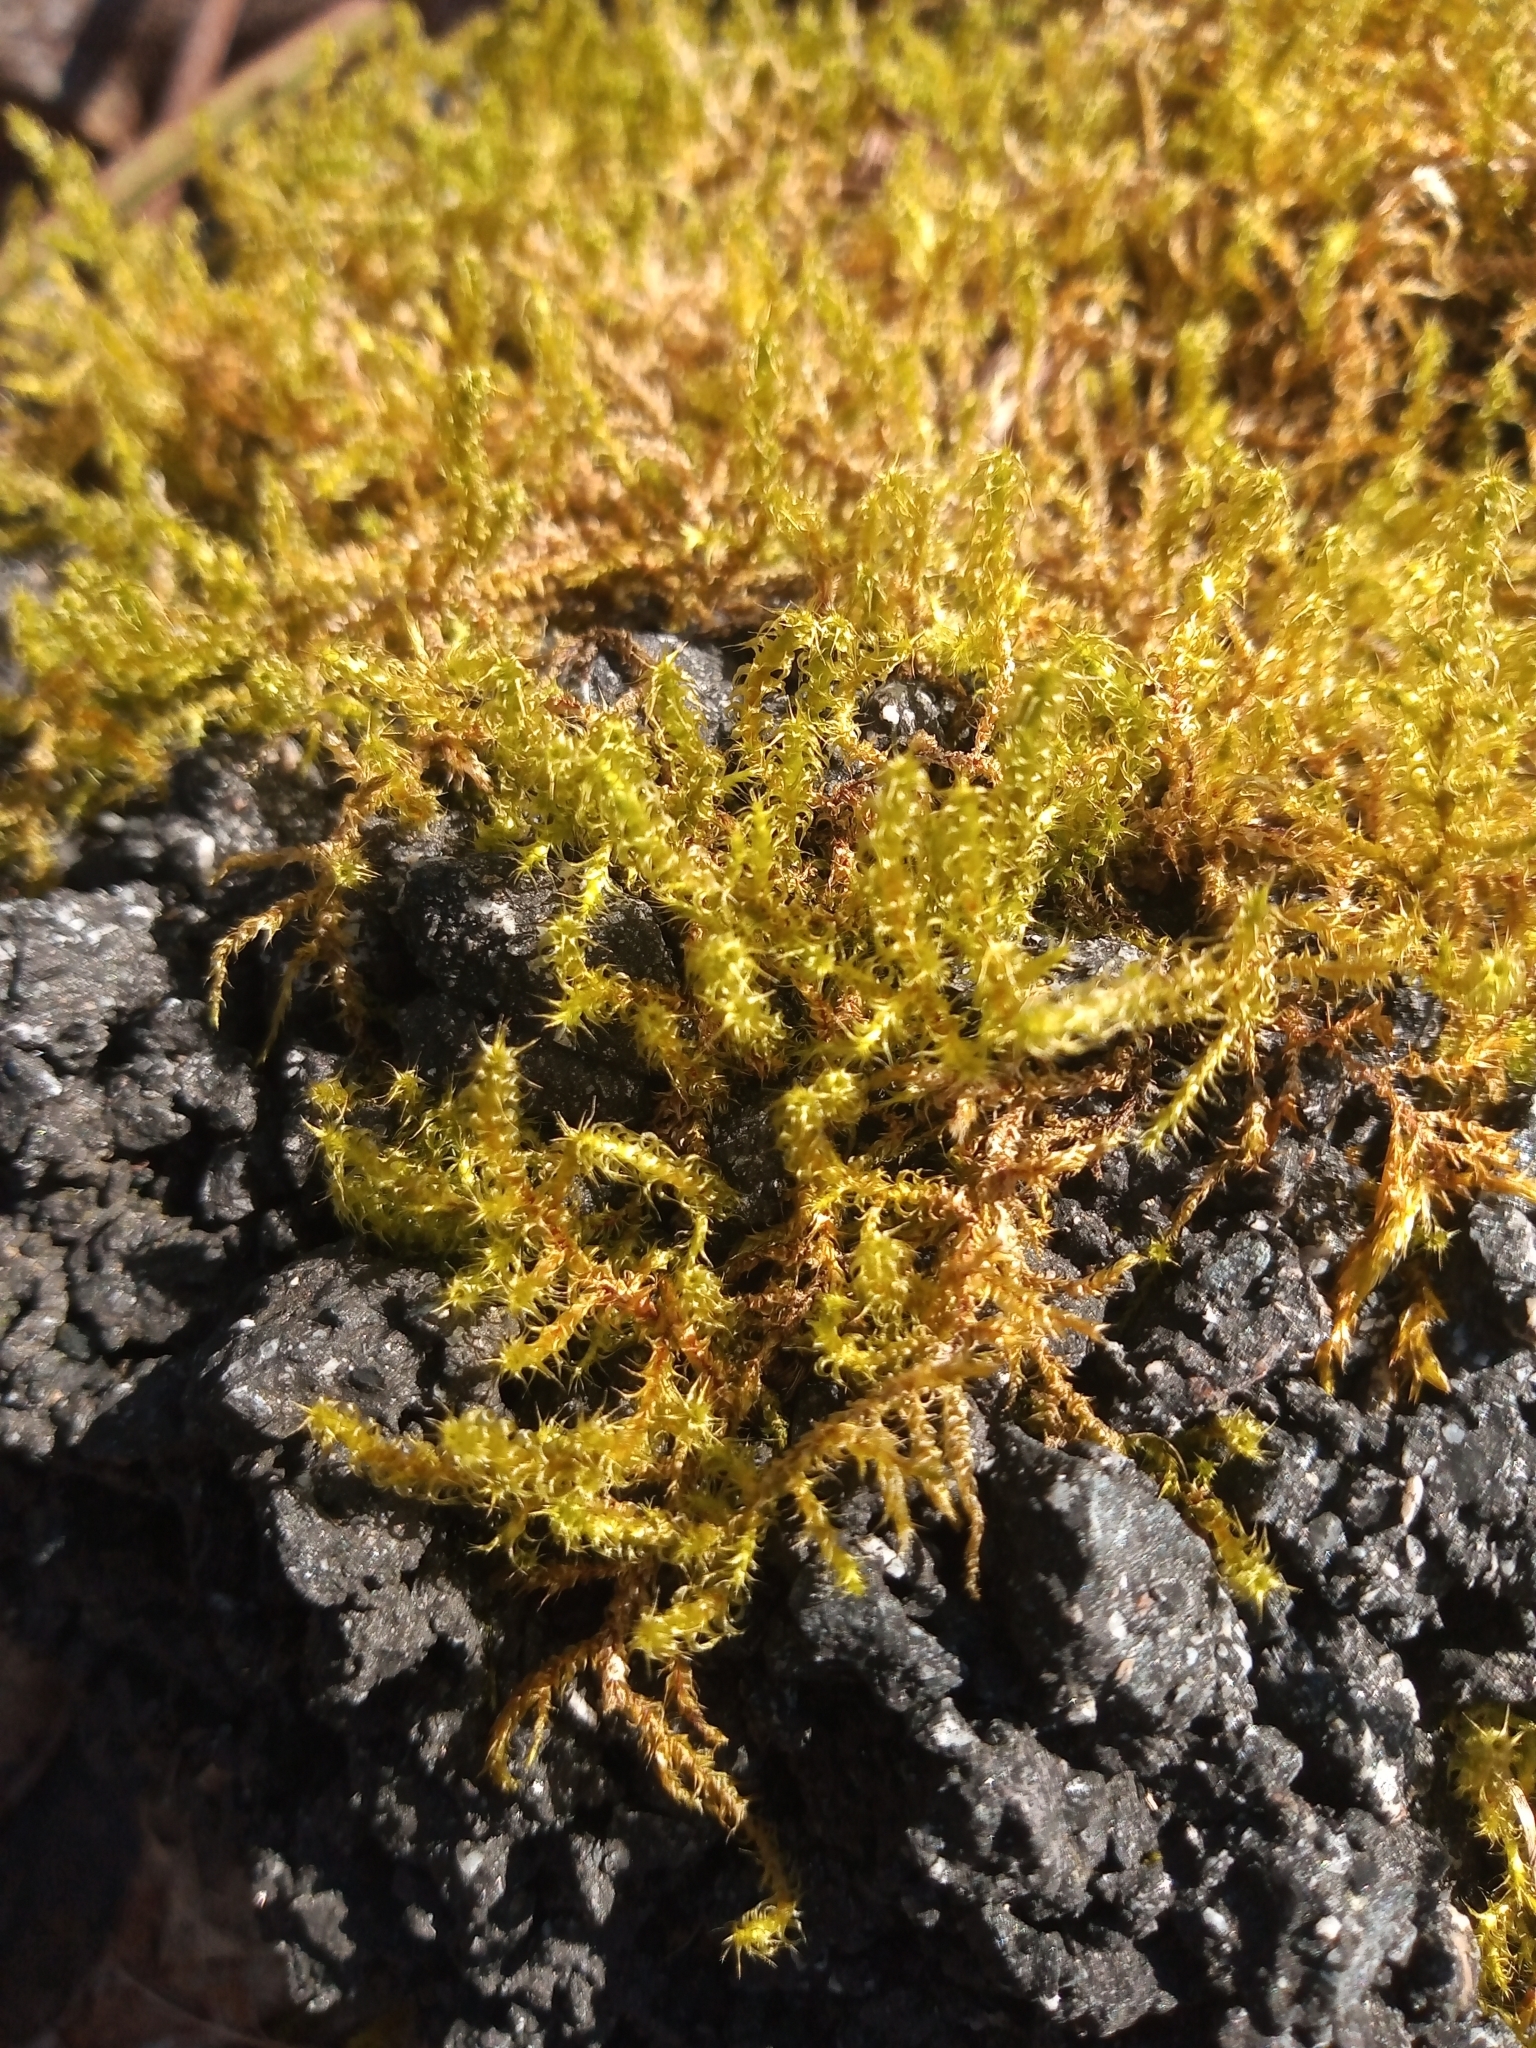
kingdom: Plantae
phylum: Bryophyta
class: Bryopsida
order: Hypnales
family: Hylocomiaceae
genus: Rhytidiadelphus
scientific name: Rhytidiadelphus squarrosus
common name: Springy turf-moss
